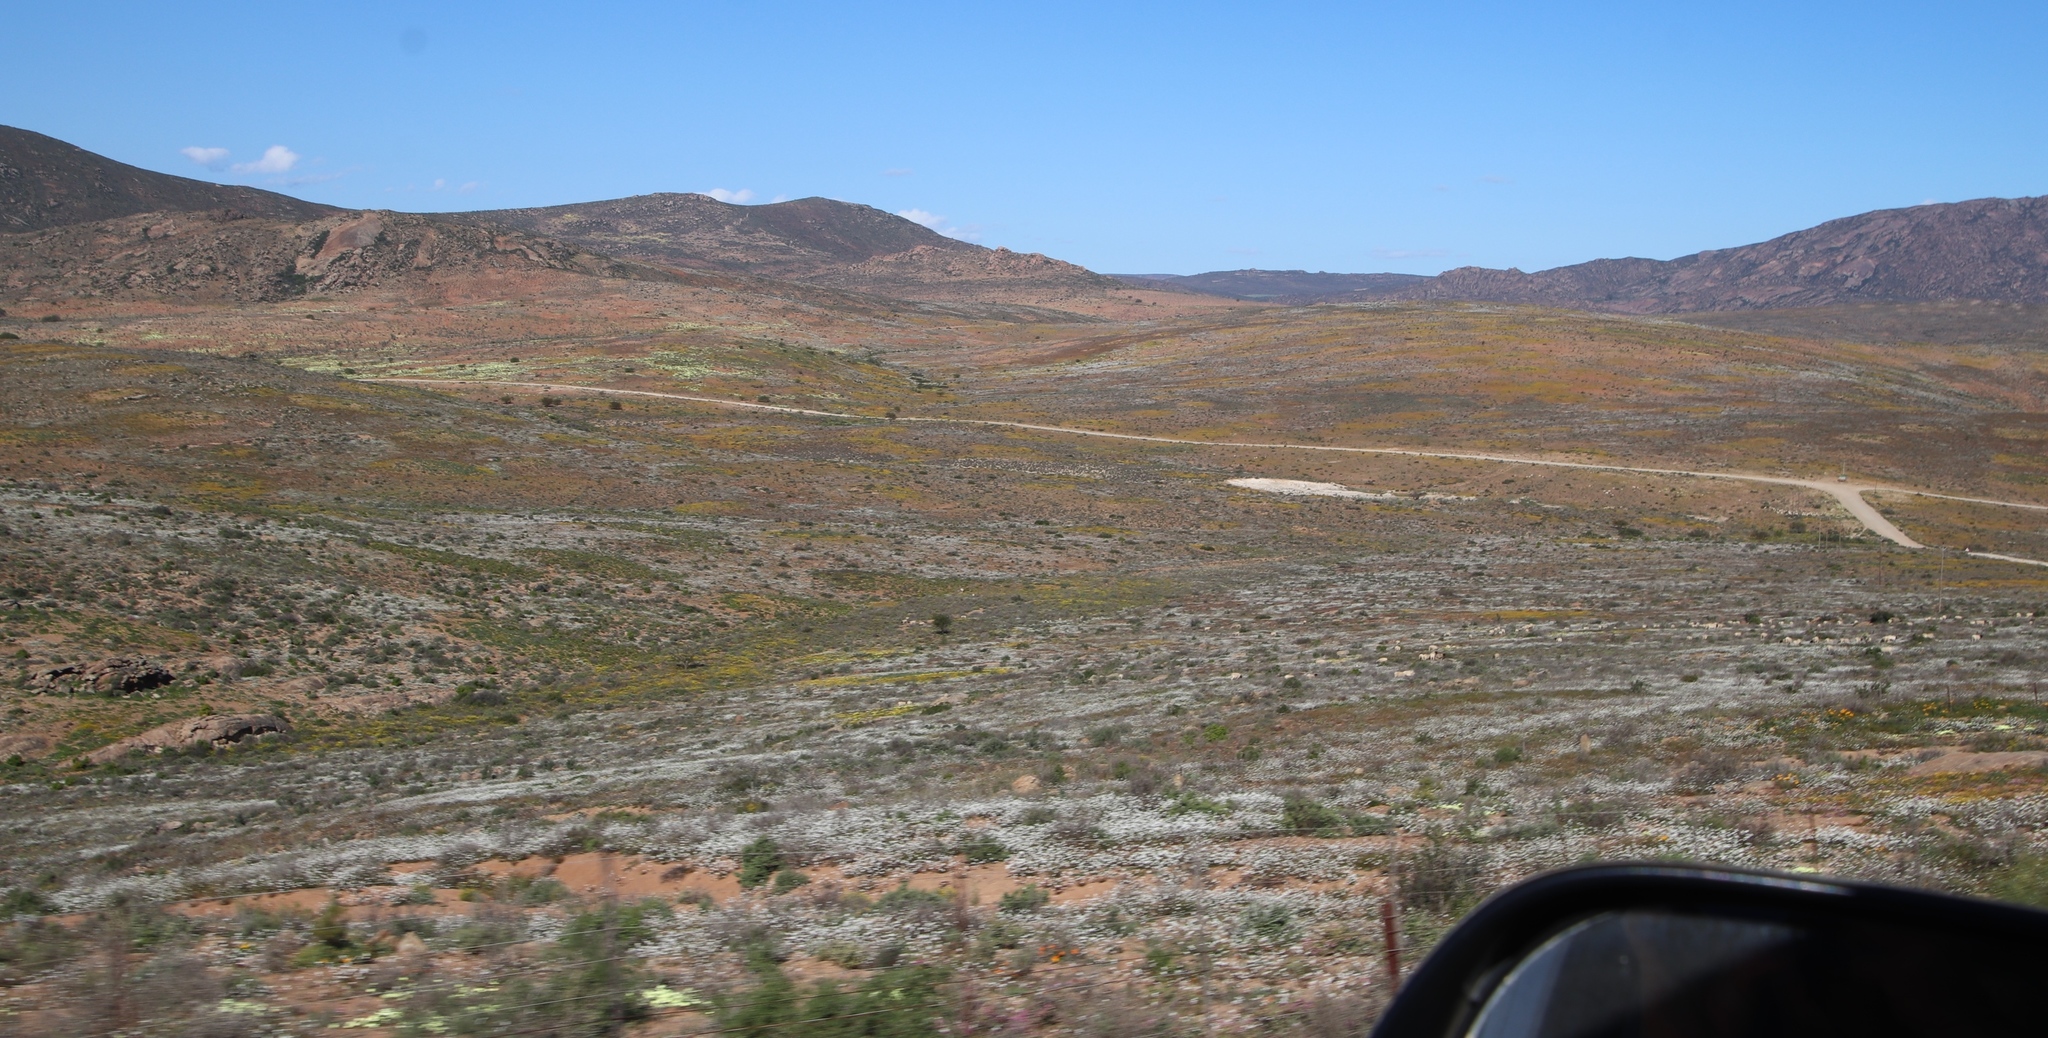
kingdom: Plantae
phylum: Tracheophyta
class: Magnoliopsida
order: Brassicales
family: Brassicaceae
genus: Heliophila
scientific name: Heliophila variabilis
